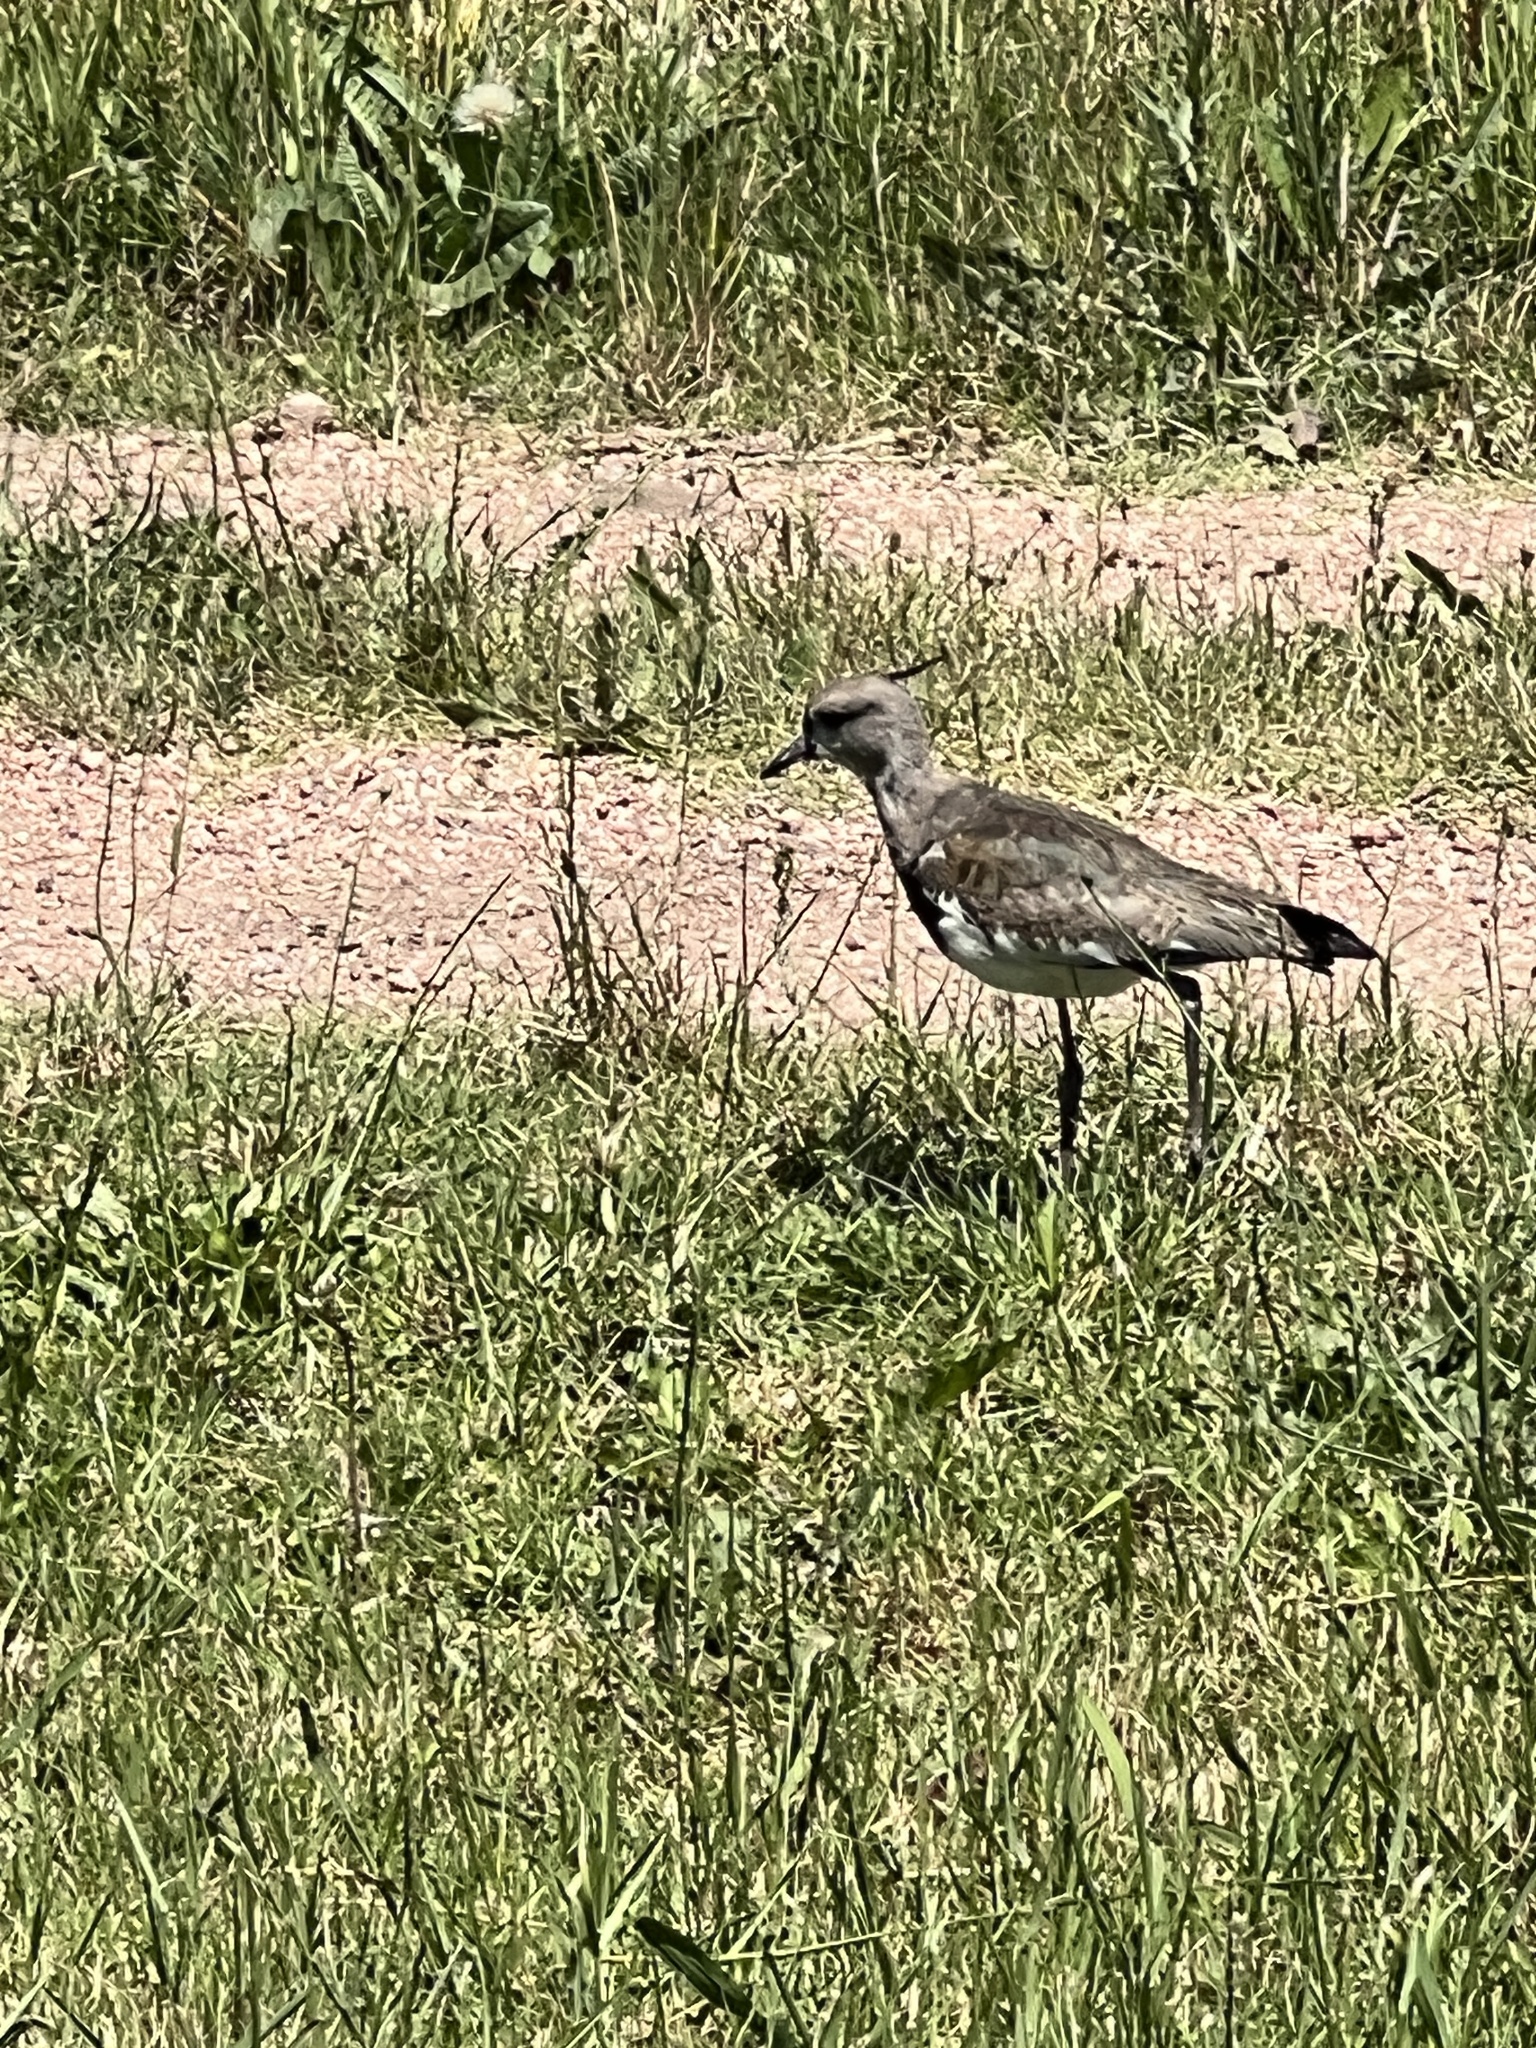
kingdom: Animalia
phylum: Chordata
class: Aves
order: Charadriiformes
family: Charadriidae
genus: Vanellus
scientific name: Vanellus chilensis
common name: Southern lapwing
